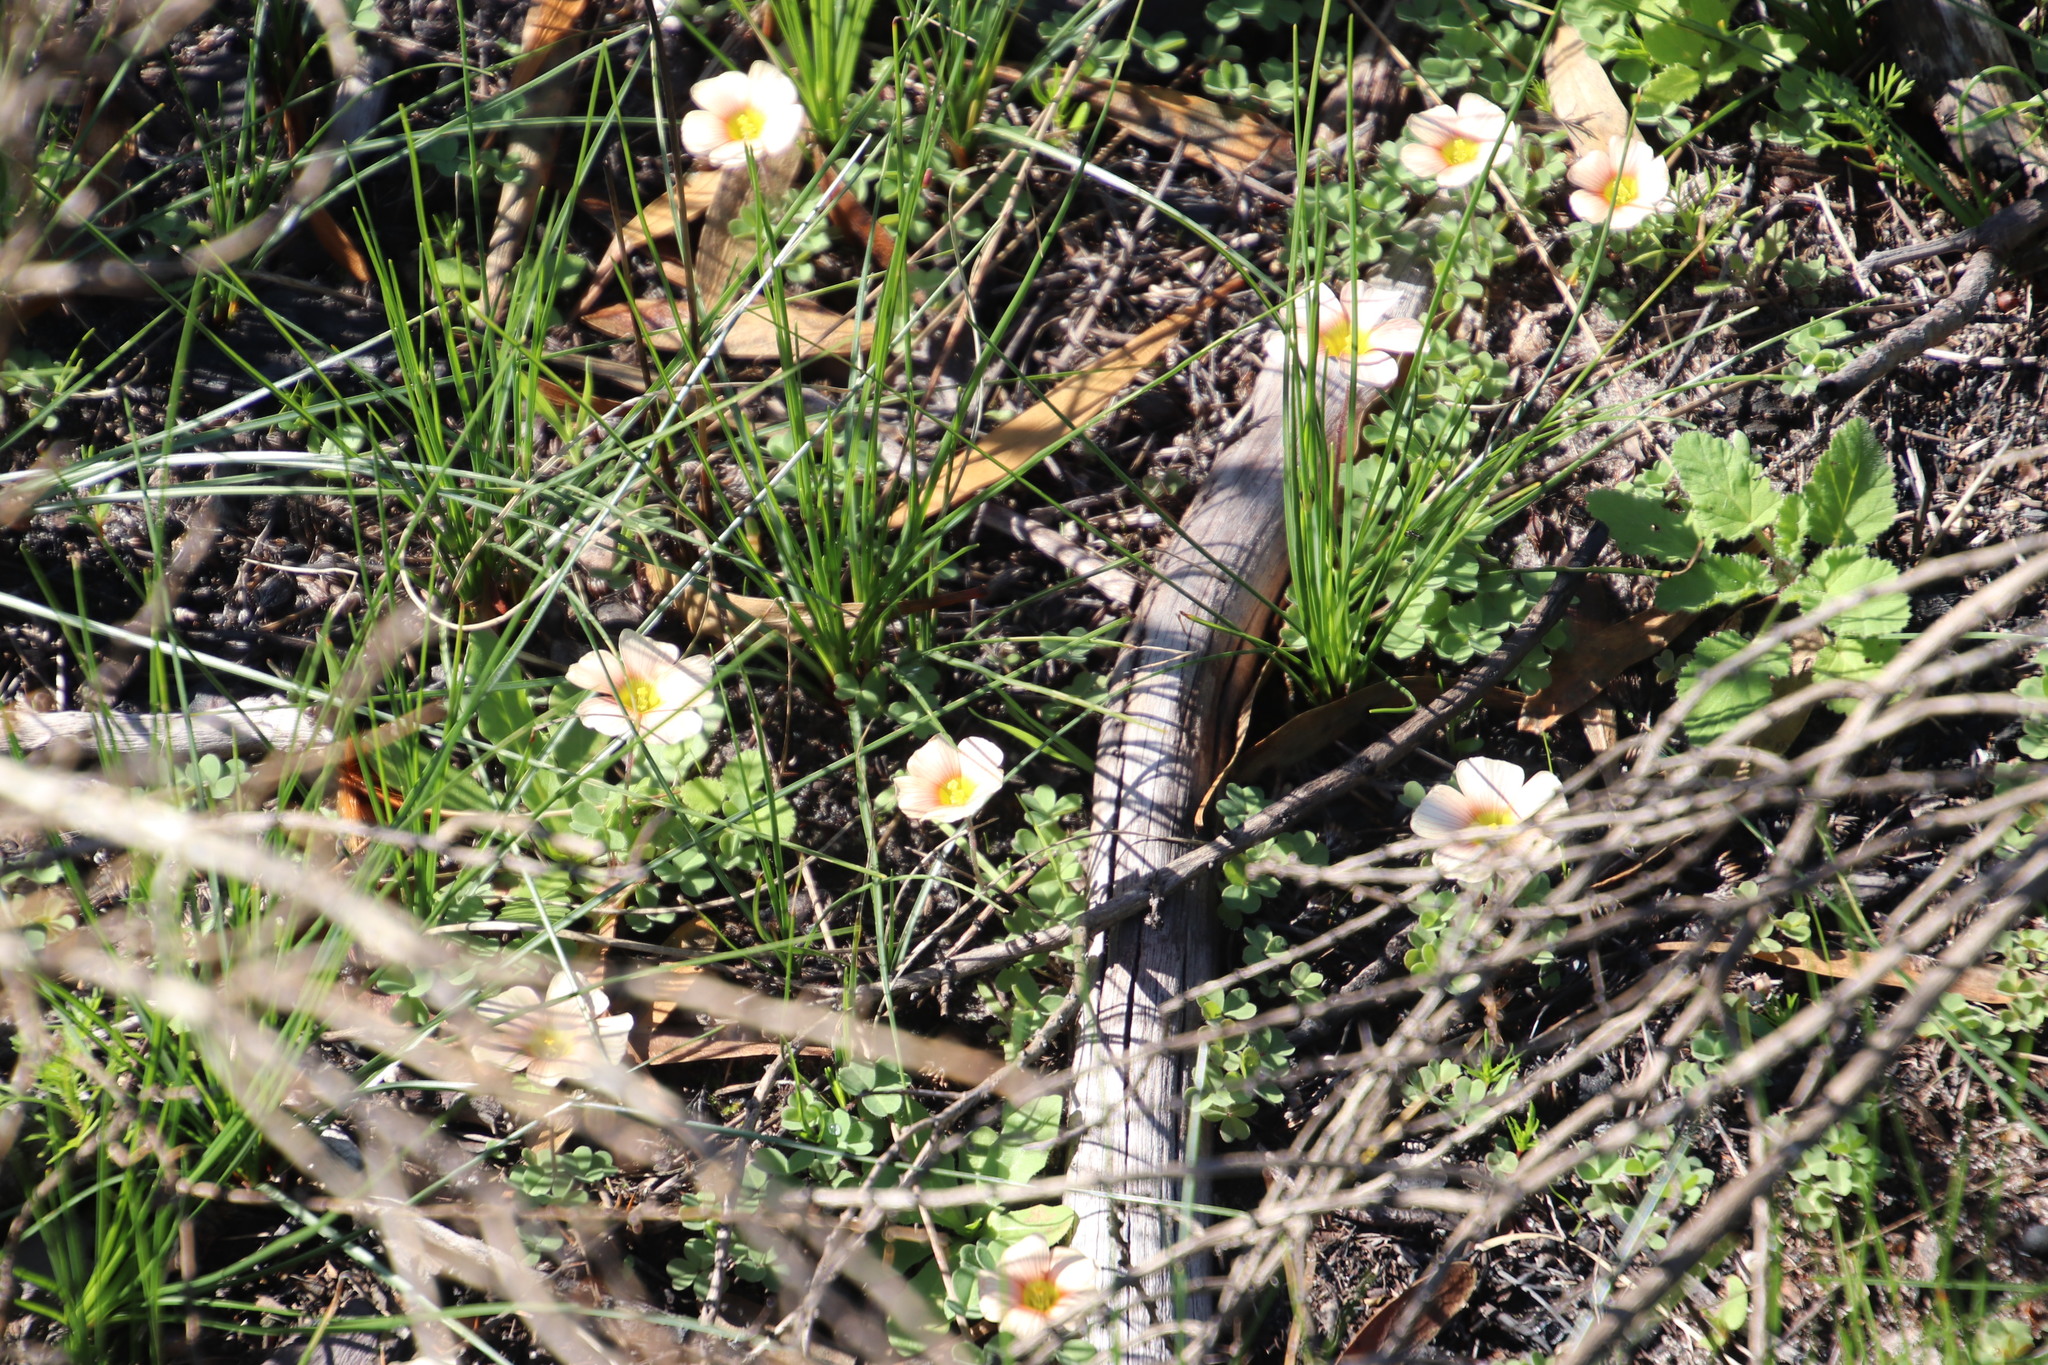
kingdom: Plantae
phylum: Tracheophyta
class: Magnoliopsida
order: Oxalidales
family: Oxalidaceae
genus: Oxalis
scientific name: Oxalis obtusa
